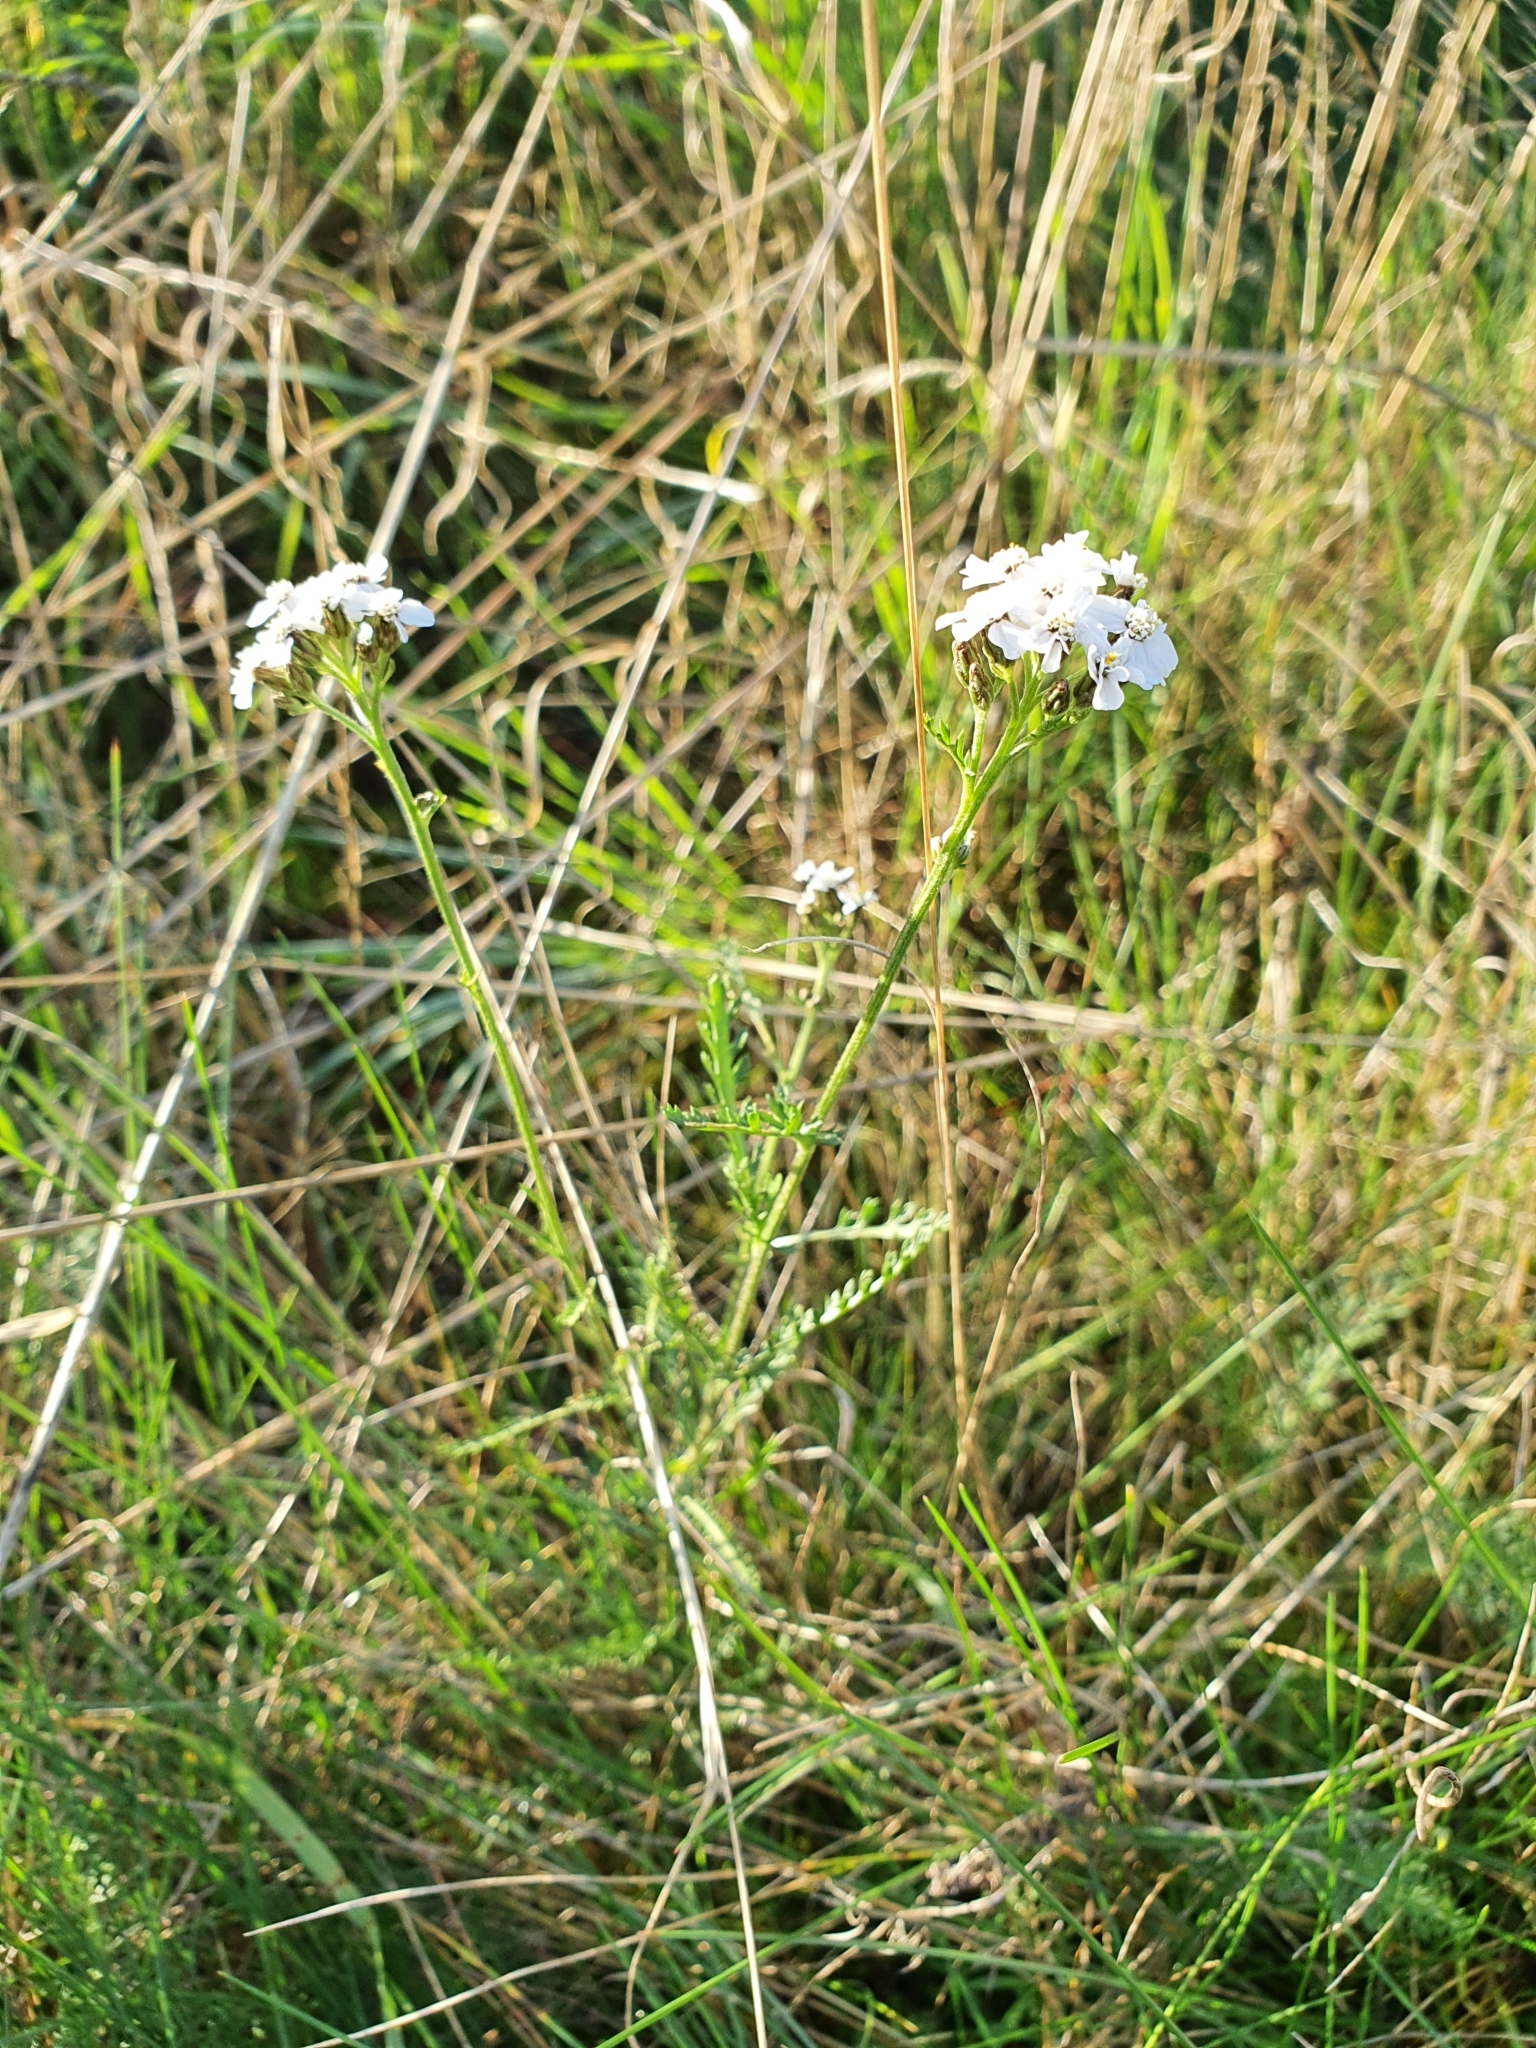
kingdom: Plantae
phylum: Tracheophyta
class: Magnoliopsida
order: Asterales
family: Asteraceae
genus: Achillea
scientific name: Achillea millefolium
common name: Yarrow
